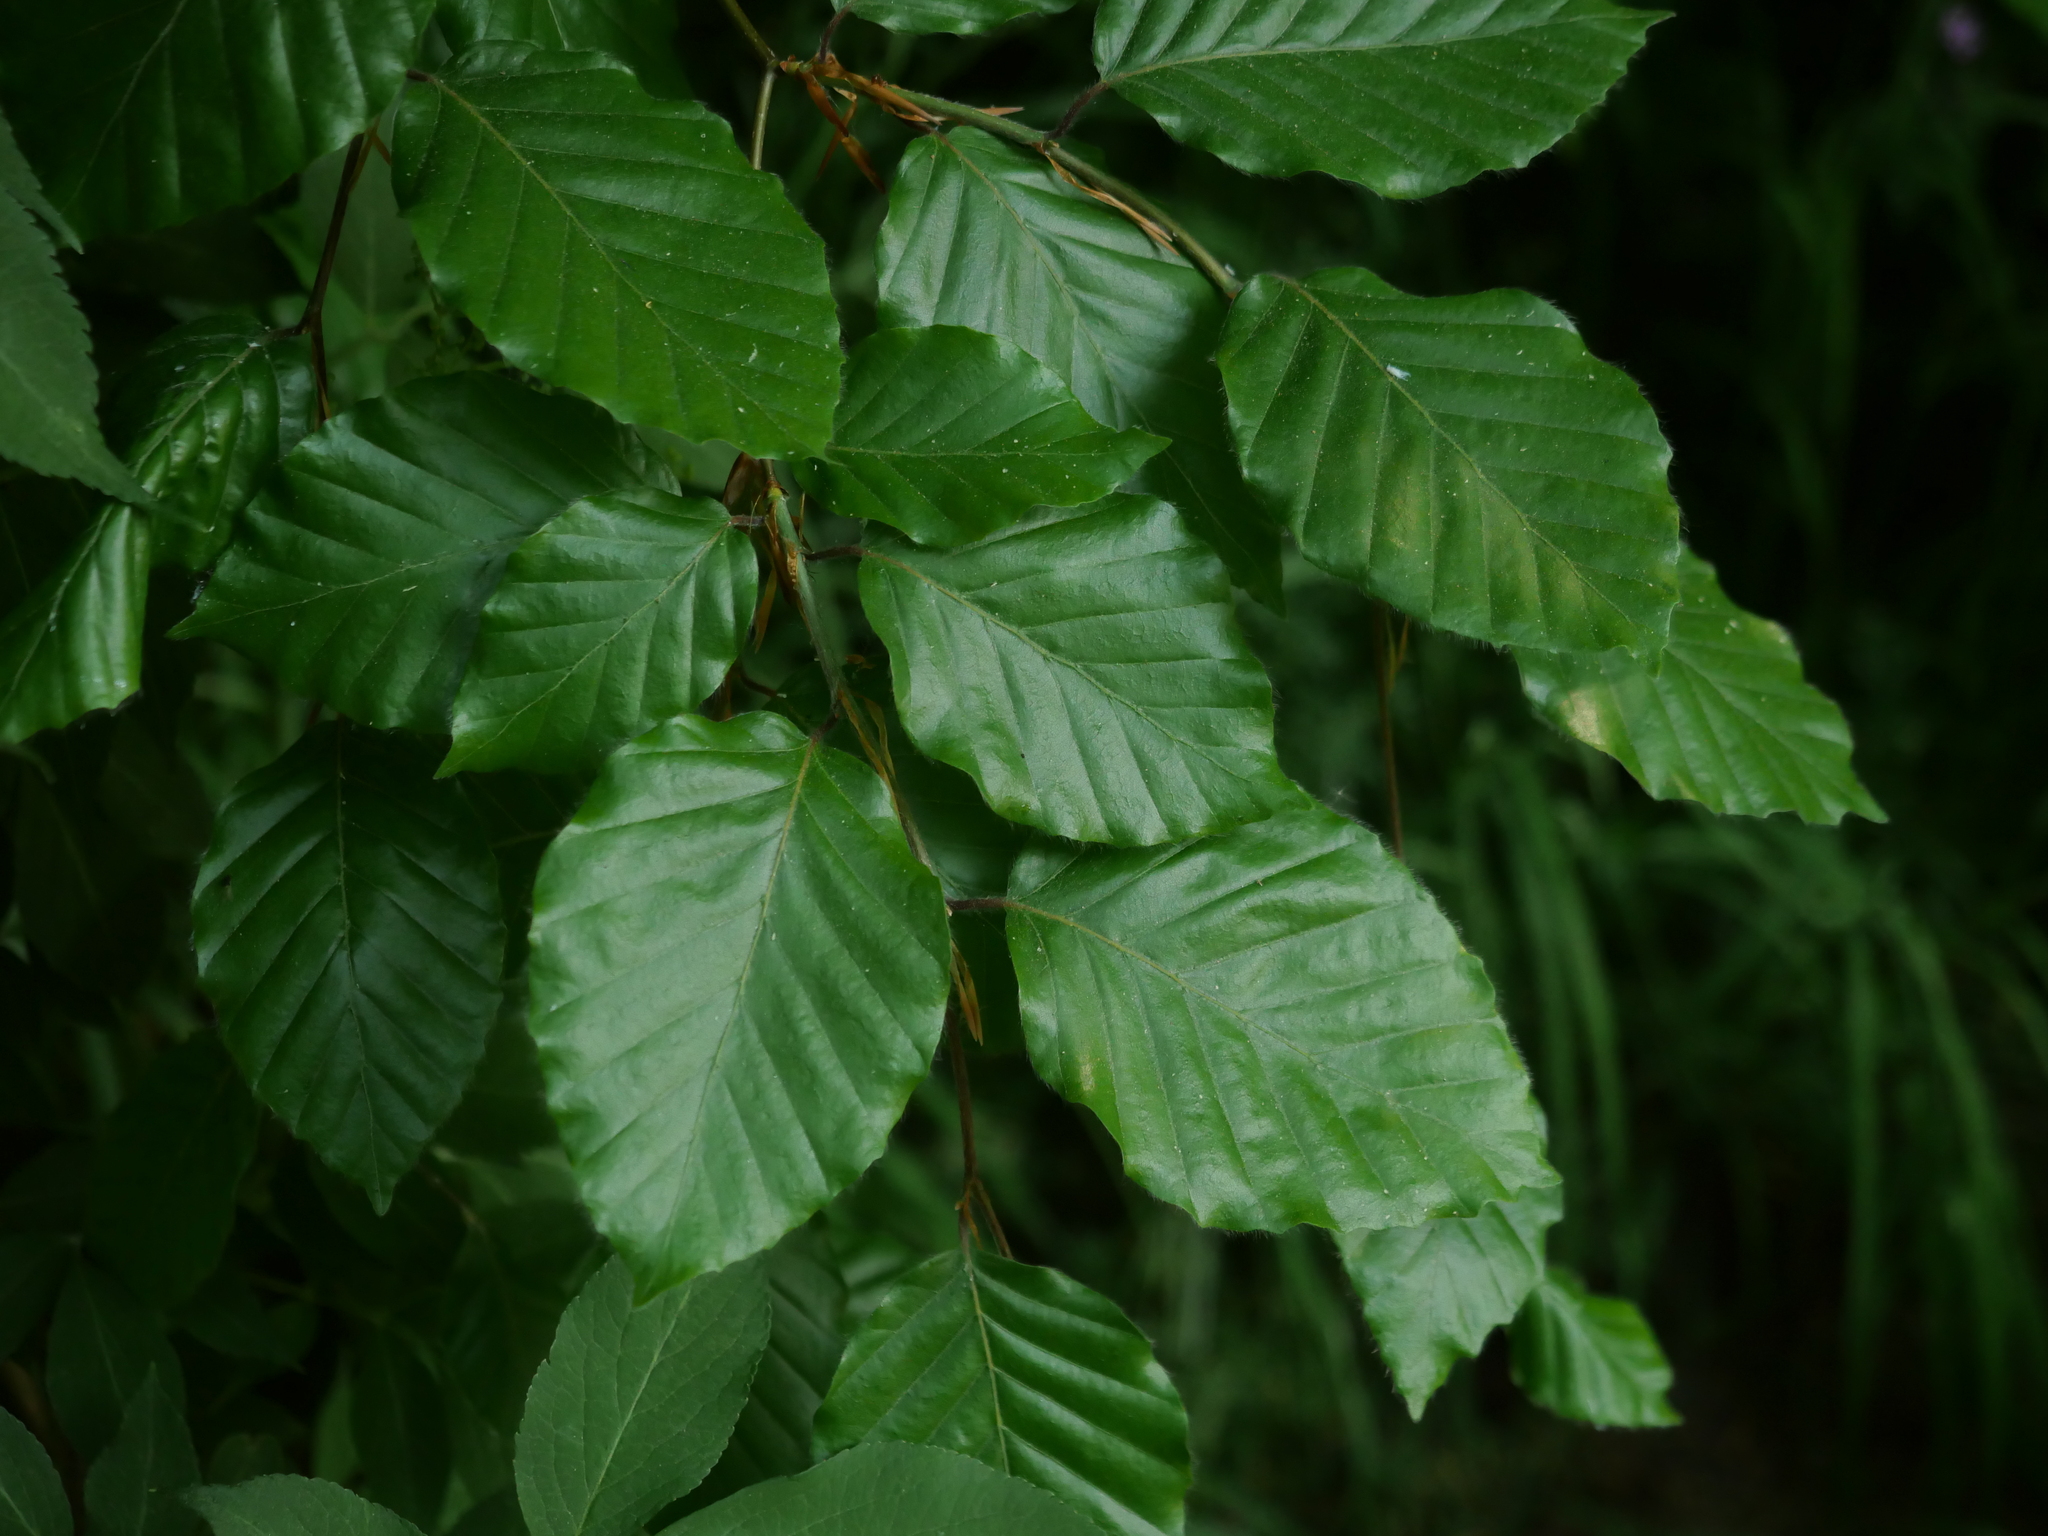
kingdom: Plantae
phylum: Tracheophyta
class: Magnoliopsida
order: Fagales
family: Fagaceae
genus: Fagus
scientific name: Fagus sylvatica
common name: Beech
